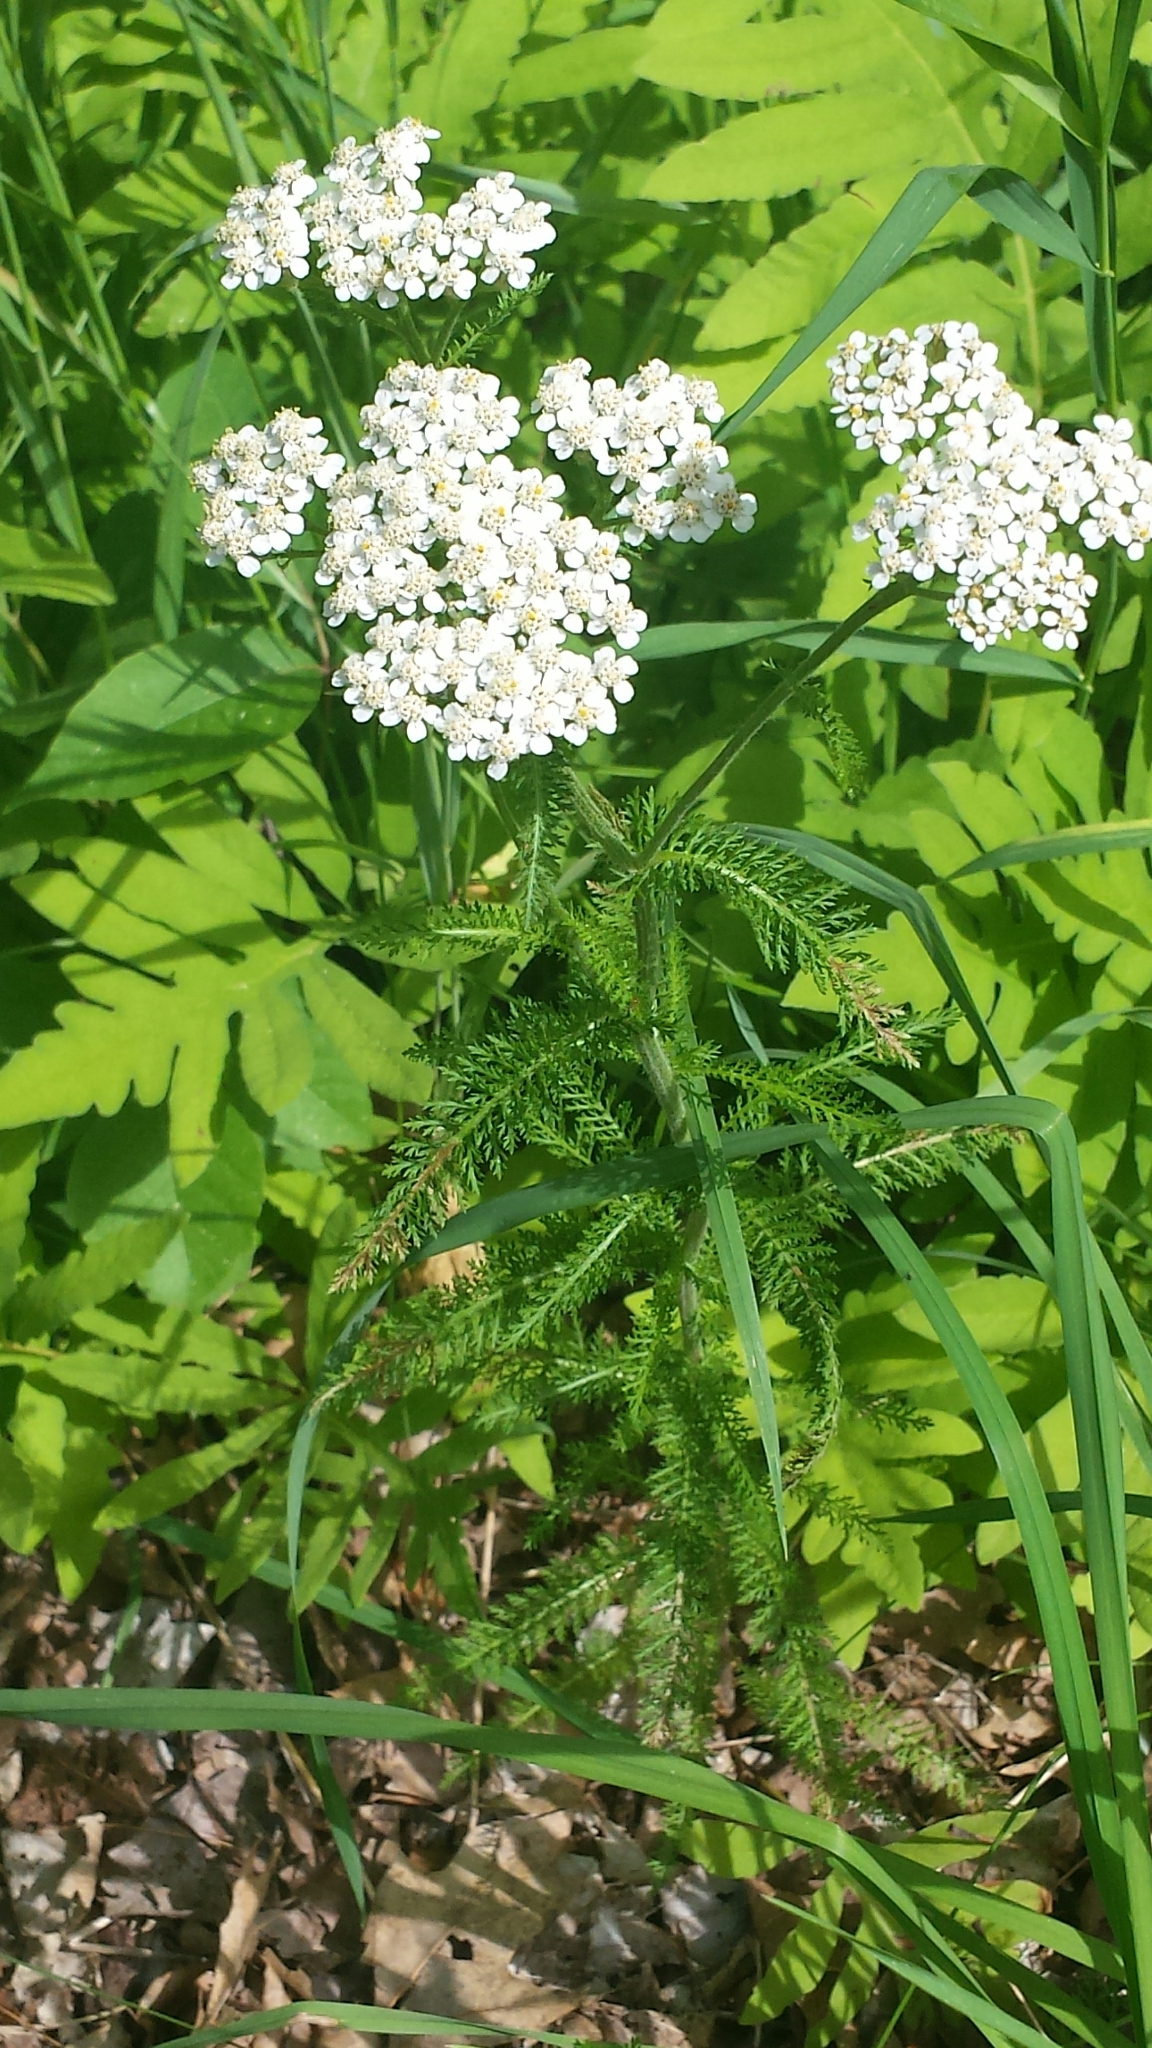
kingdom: Plantae
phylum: Tracheophyta
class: Magnoliopsida
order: Asterales
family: Asteraceae
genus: Achillea
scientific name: Achillea millefolium
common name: Yarrow
